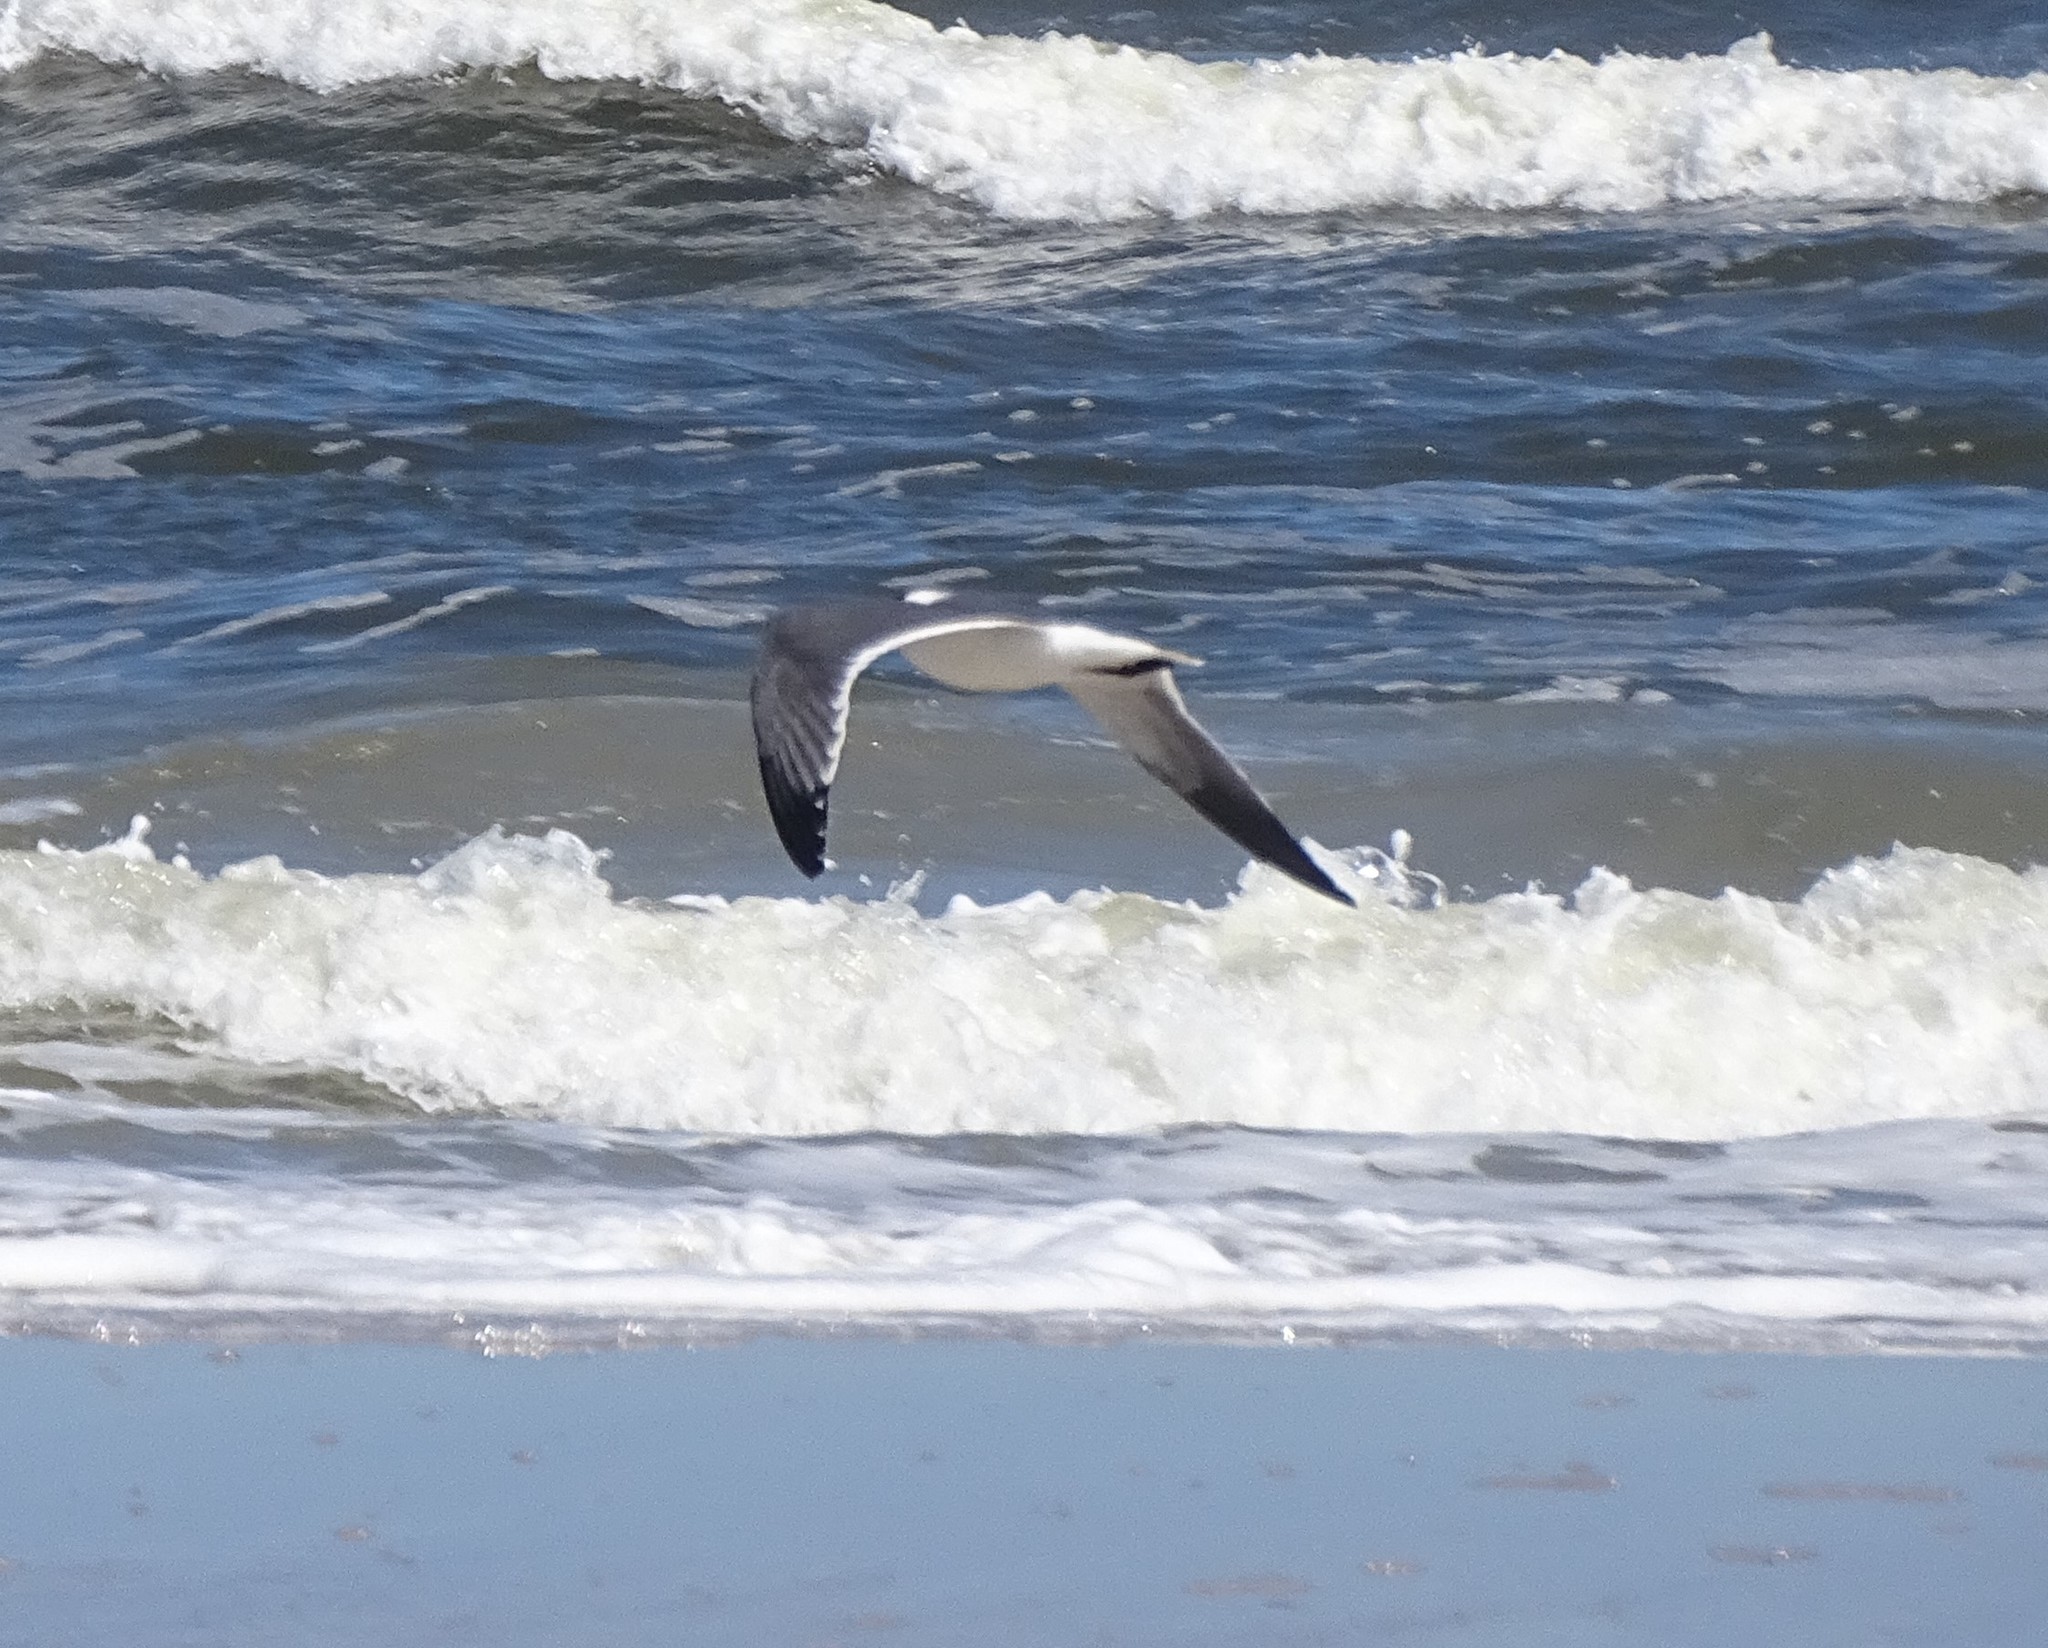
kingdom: Animalia
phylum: Chordata
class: Aves
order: Charadriiformes
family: Laridae
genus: Leucophaeus
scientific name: Leucophaeus atricilla
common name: Laughing gull
